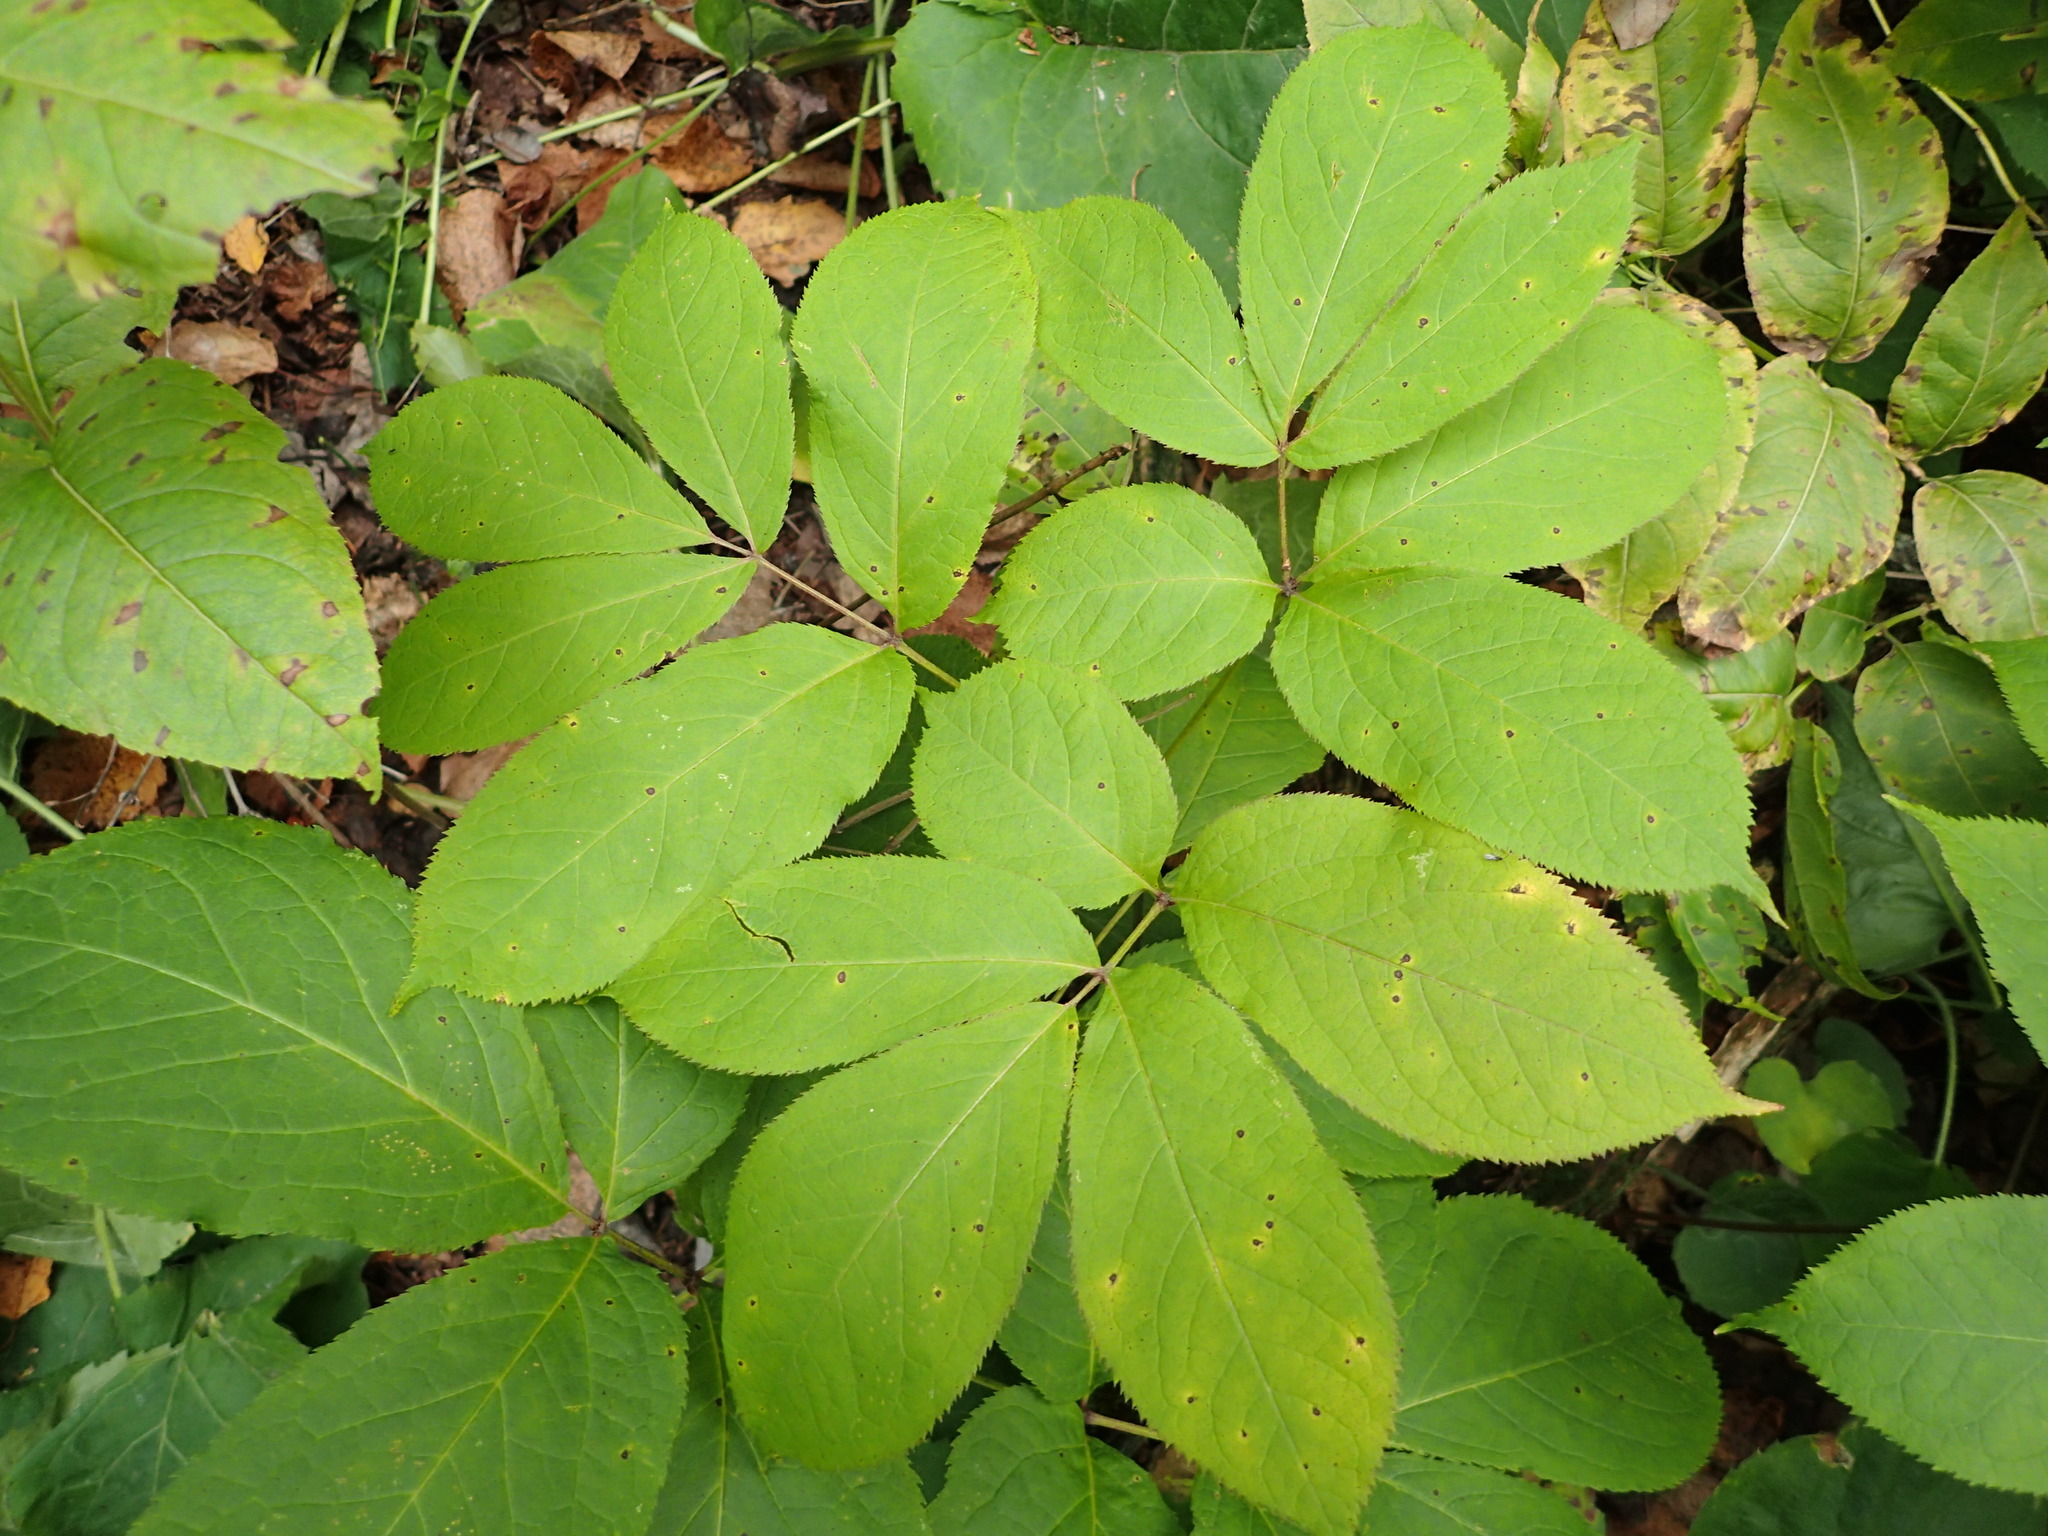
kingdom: Plantae
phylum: Tracheophyta
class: Magnoliopsida
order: Apiales
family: Araliaceae
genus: Aralia
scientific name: Aralia nudicaulis
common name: Wild sarsaparilla
